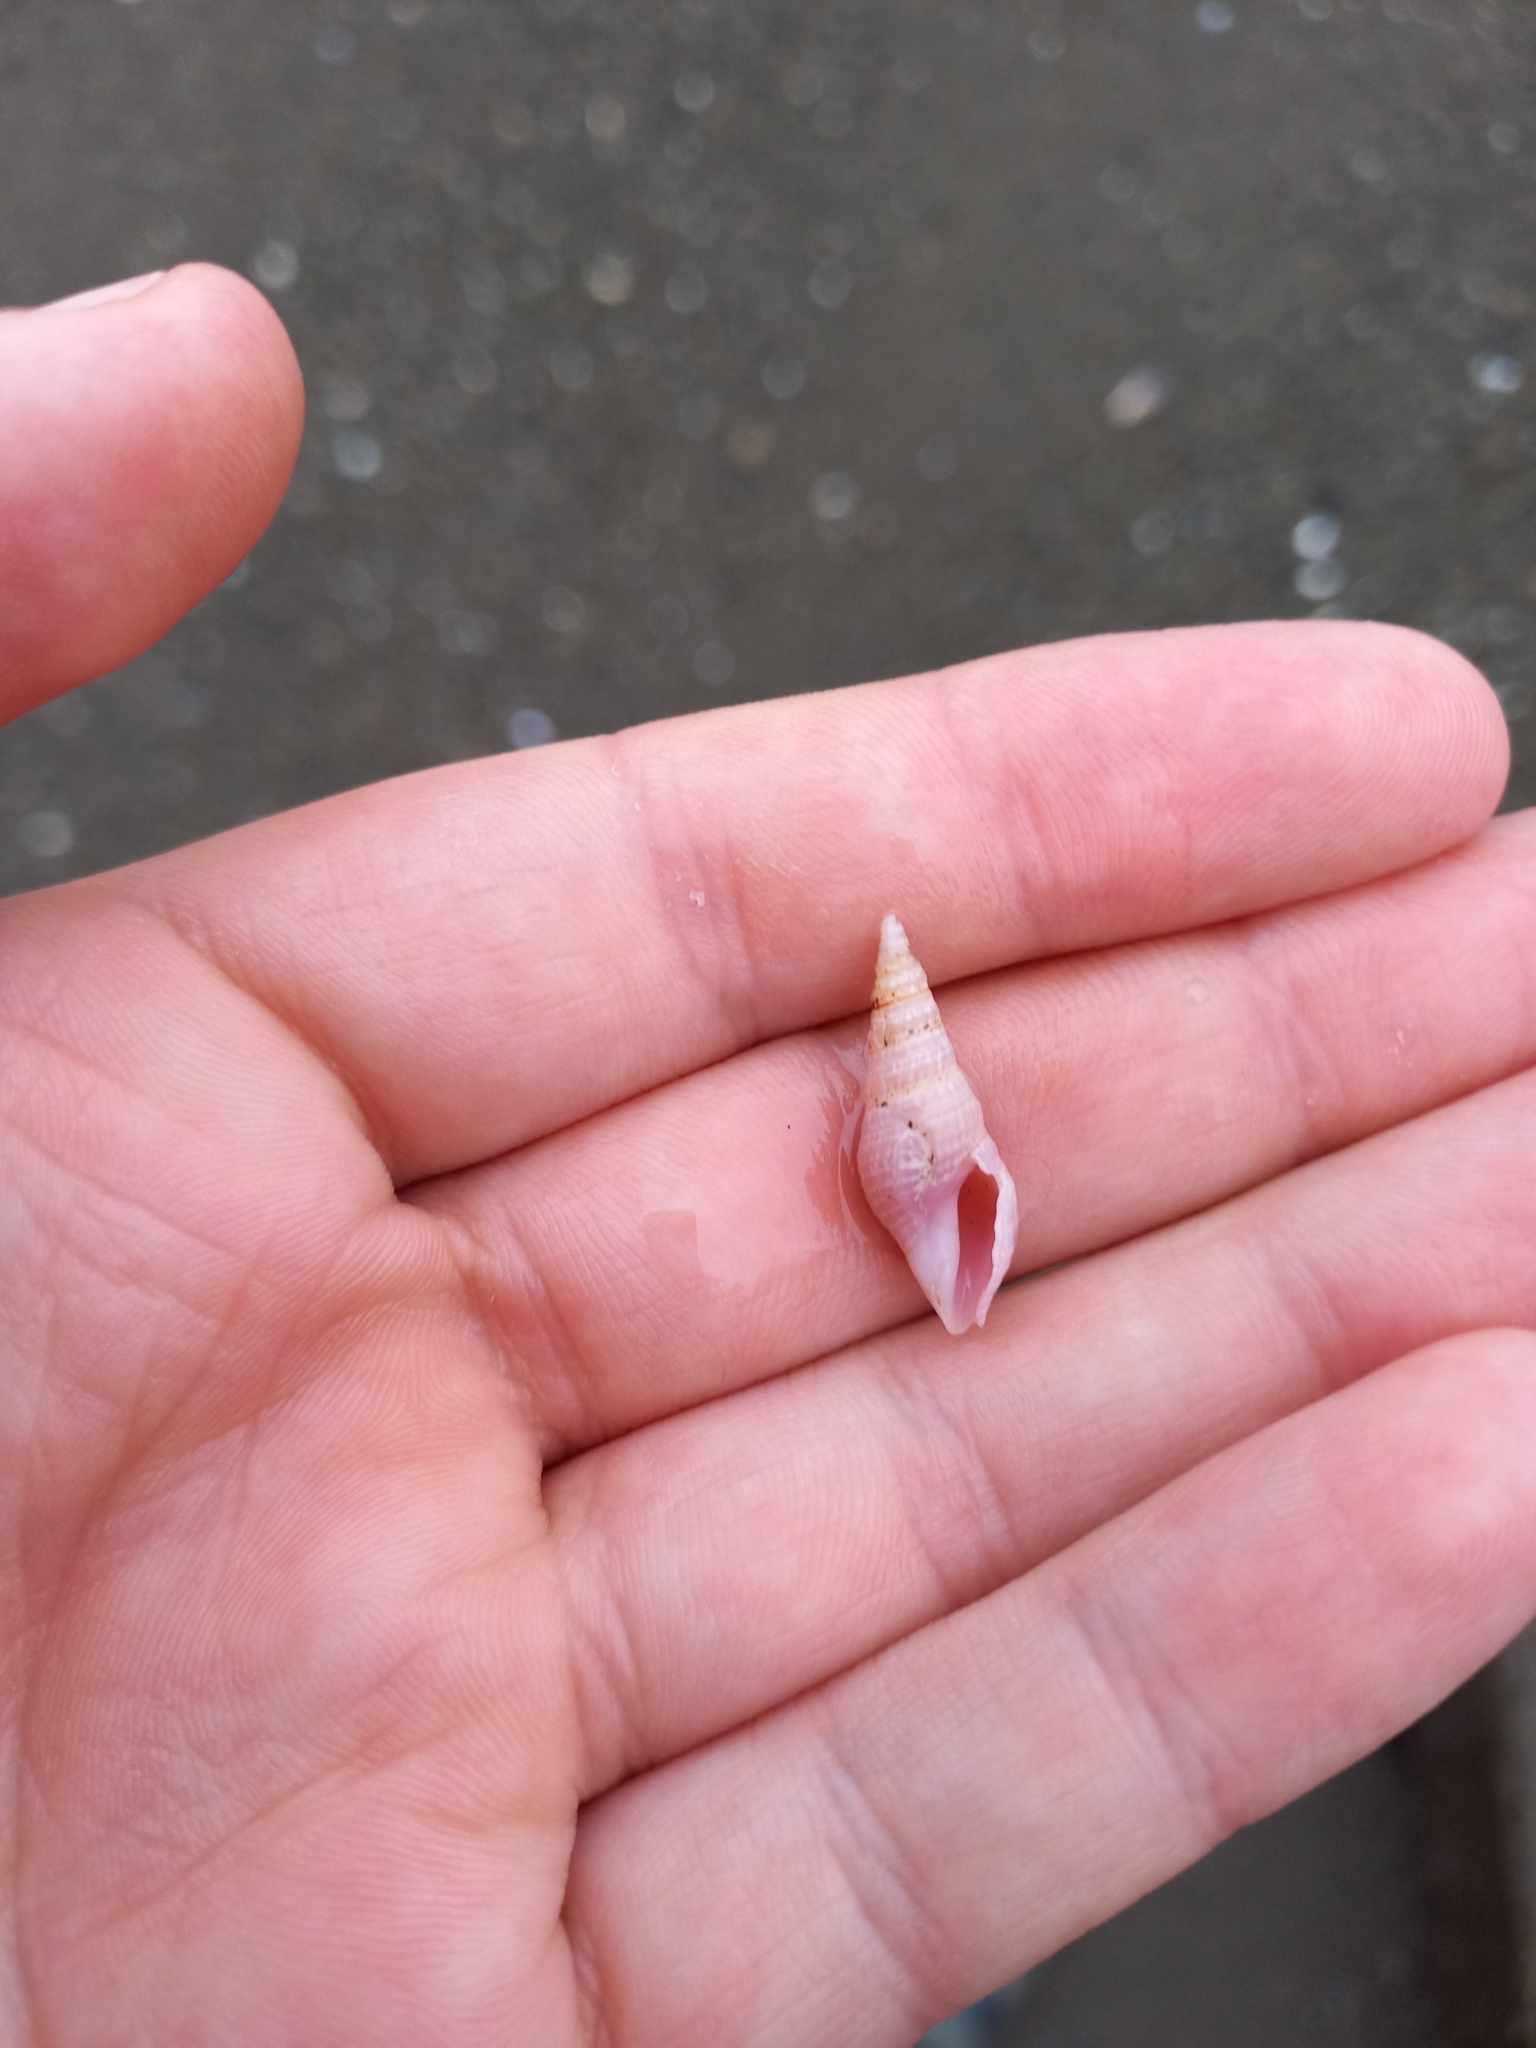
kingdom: Animalia
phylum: Mollusca
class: Gastropoda
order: Neogastropoda
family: Borsoniidae
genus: Phenatoma
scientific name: Phenatoma roseum
